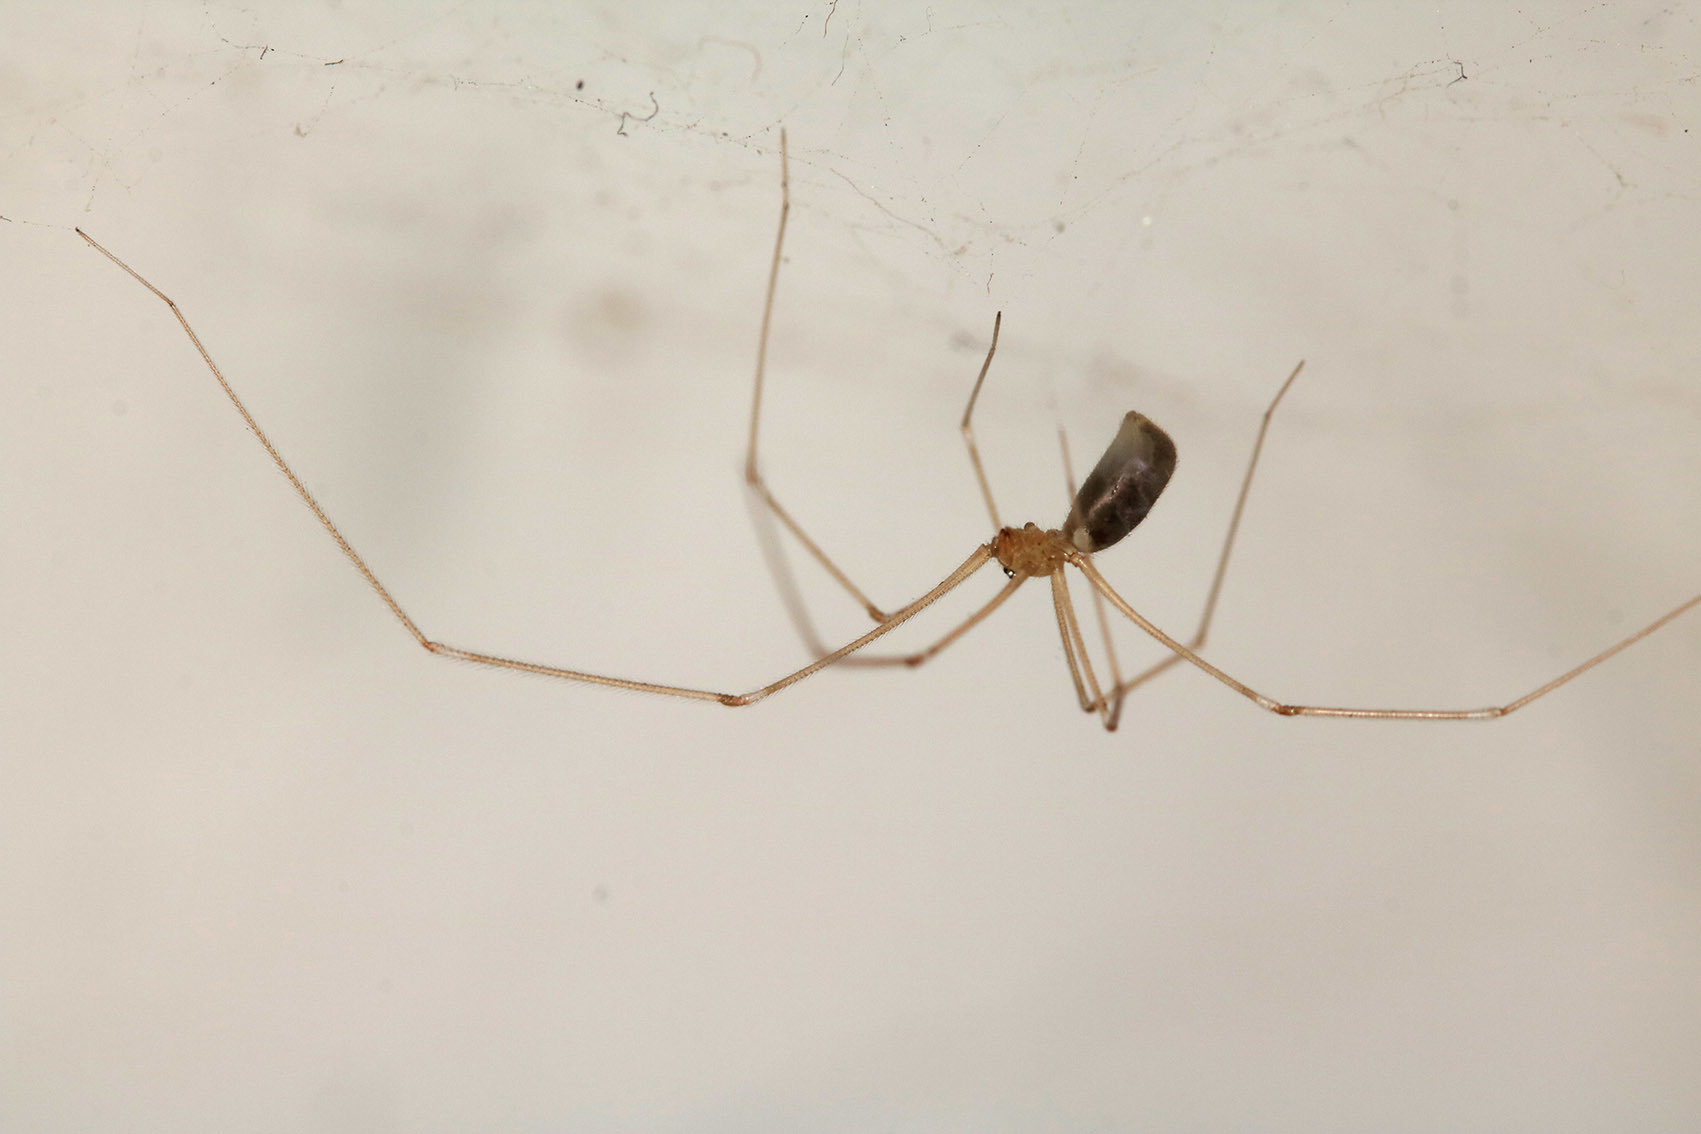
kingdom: Animalia
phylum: Arthropoda
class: Arachnida
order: Araneae
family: Pholcidae
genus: Pholcus
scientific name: Pholcus phalangioides
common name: Longbodied cellar spider
